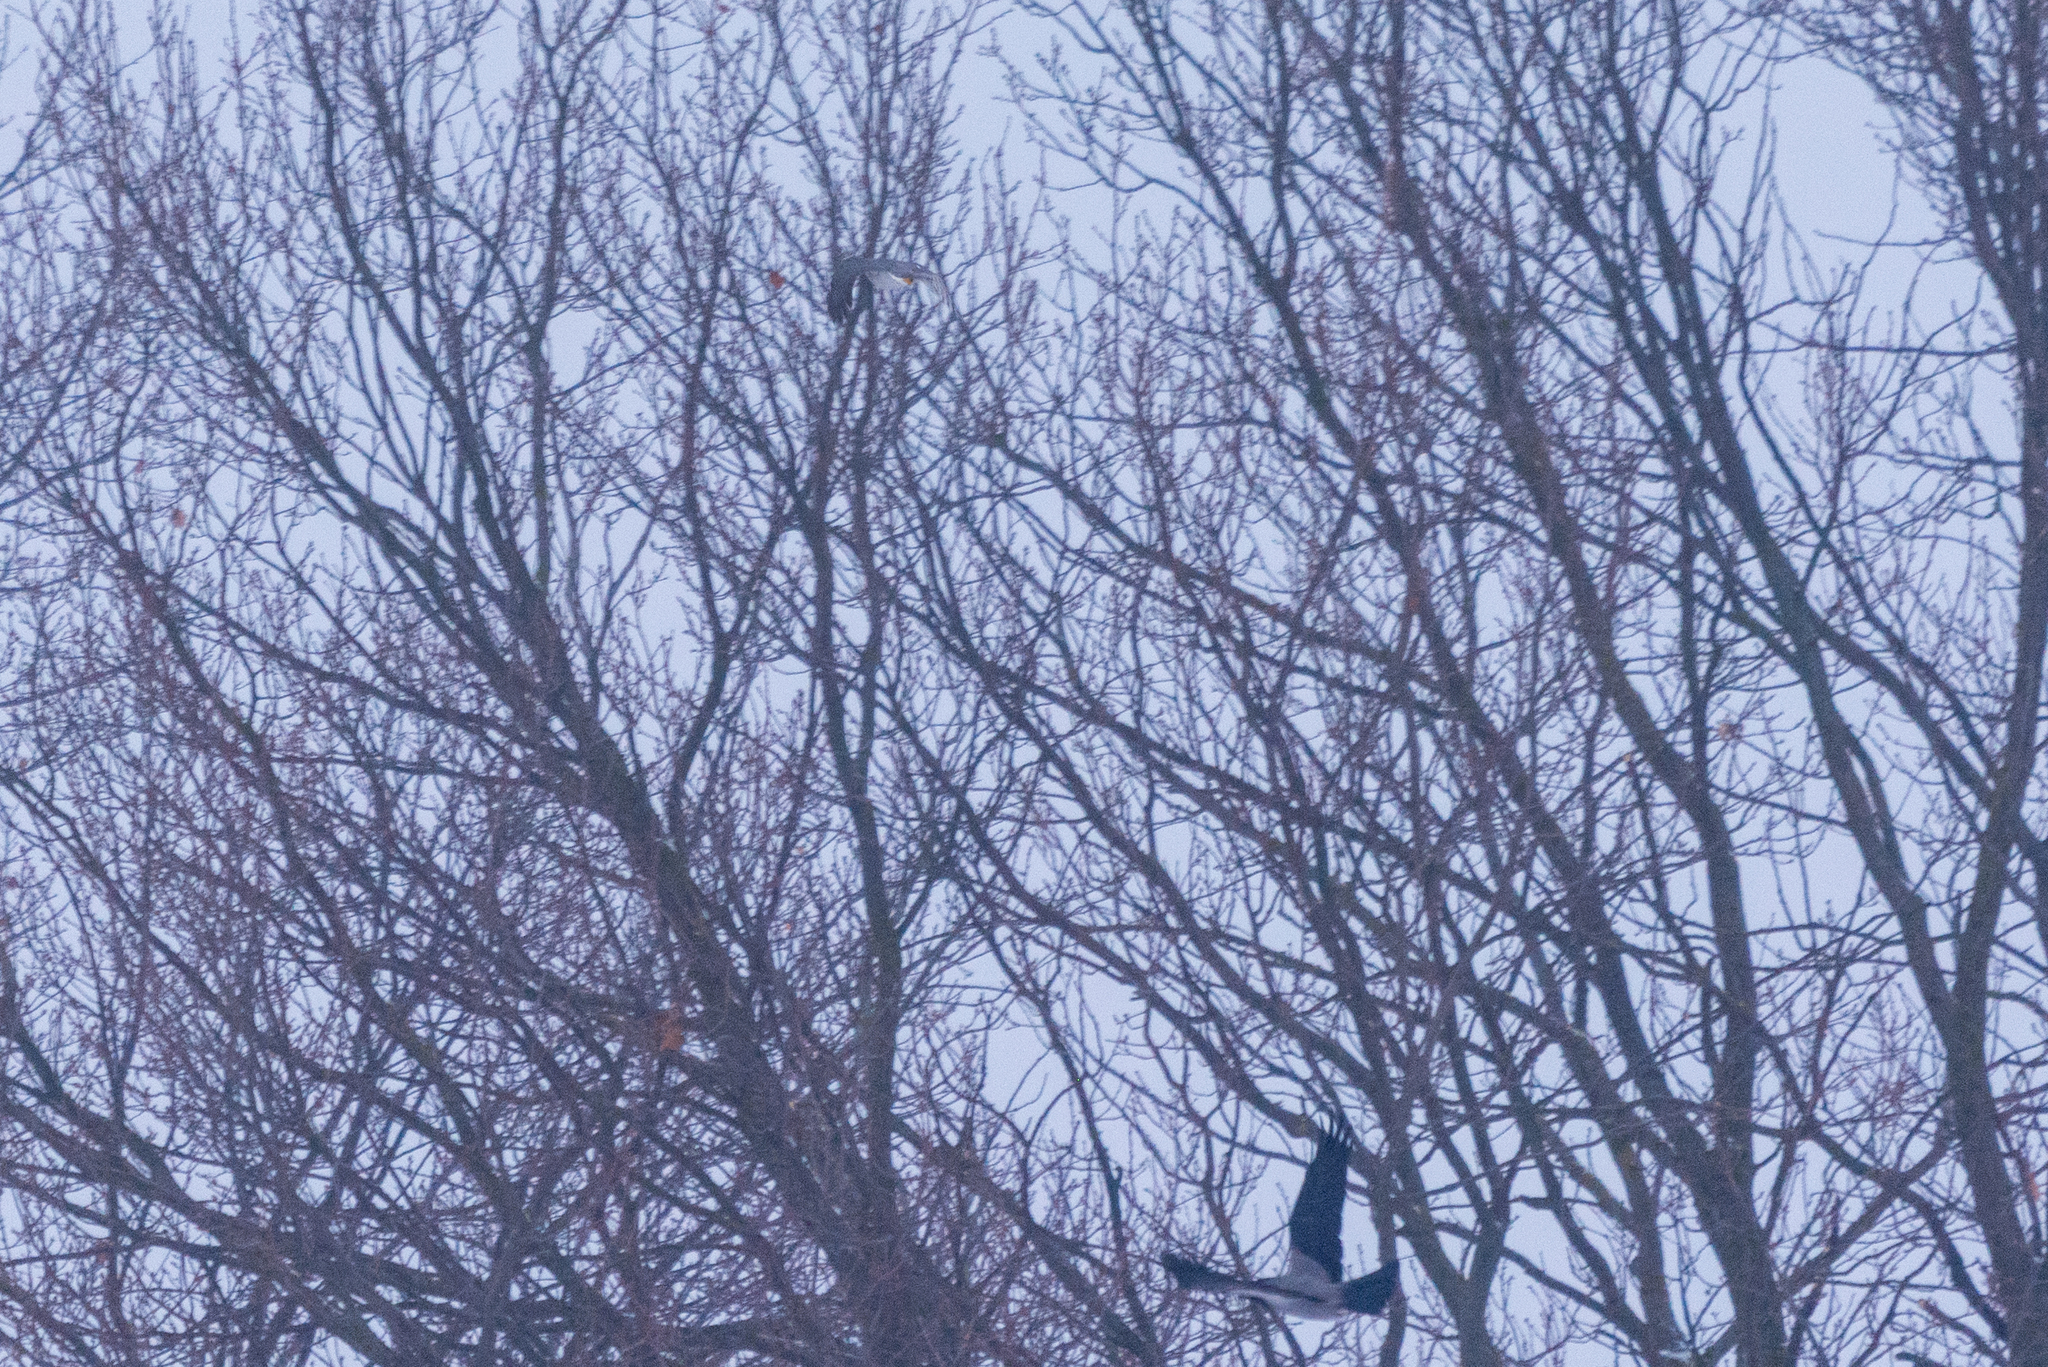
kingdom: Animalia
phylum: Chordata
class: Aves
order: Accipitriformes
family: Accipitridae
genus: Accipiter
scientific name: Accipiter nisus
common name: Eurasian sparrowhawk
